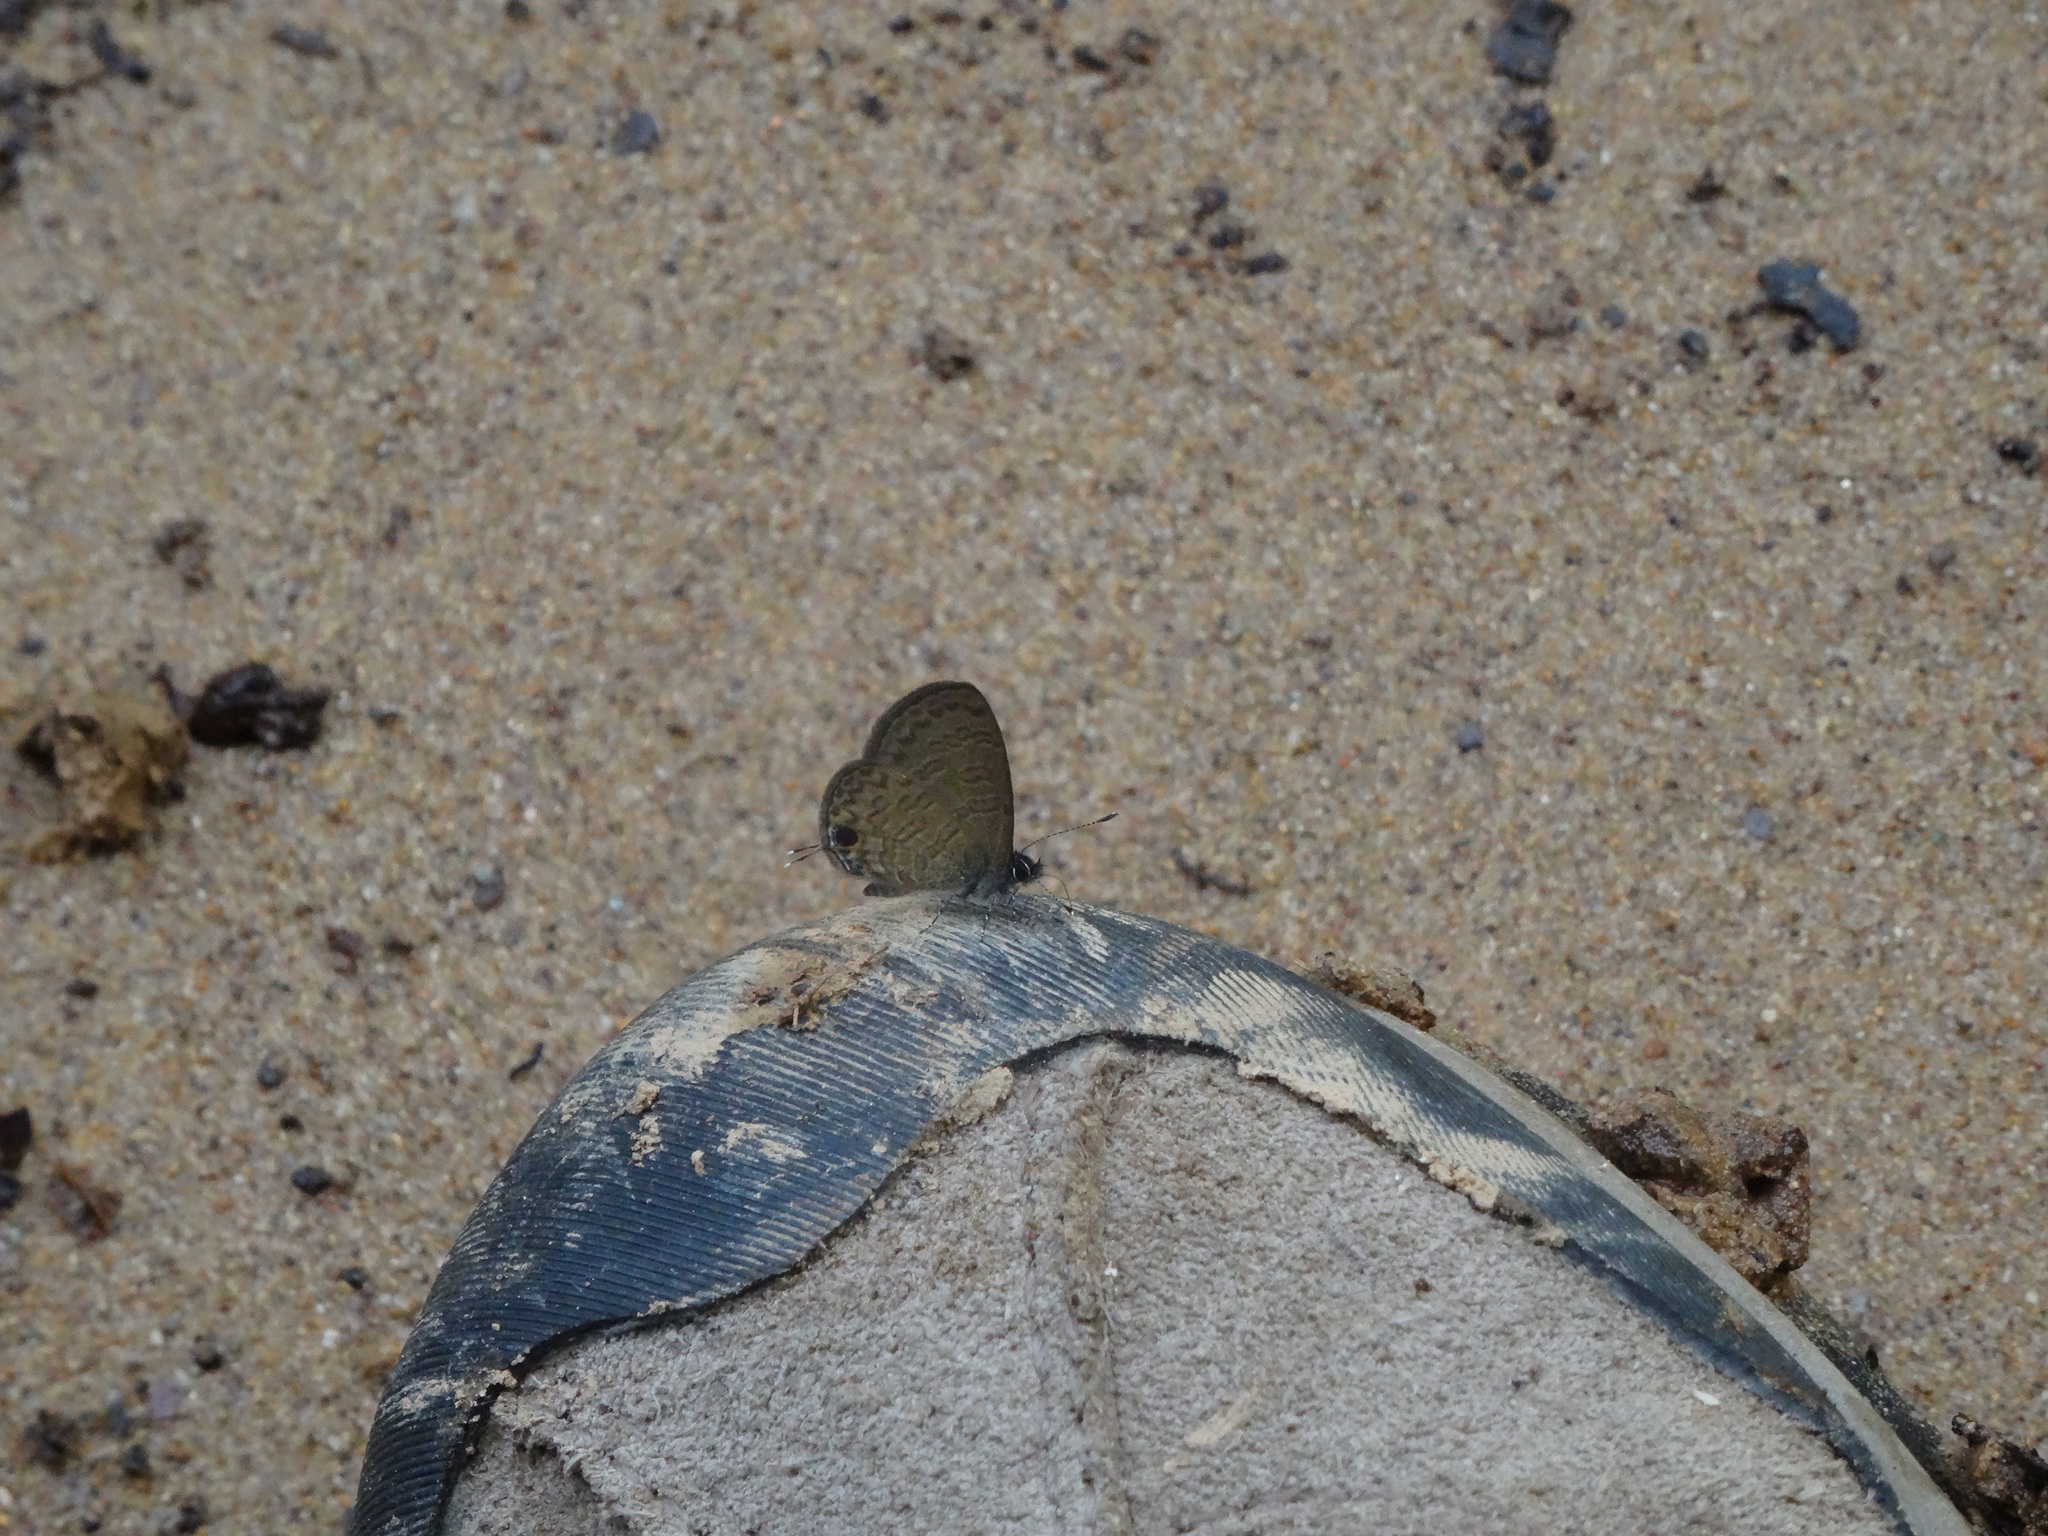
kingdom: Animalia
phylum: Arthropoda
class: Insecta
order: Lepidoptera
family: Lycaenidae
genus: Prosotas
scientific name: Prosotas nora
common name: Common line blue
